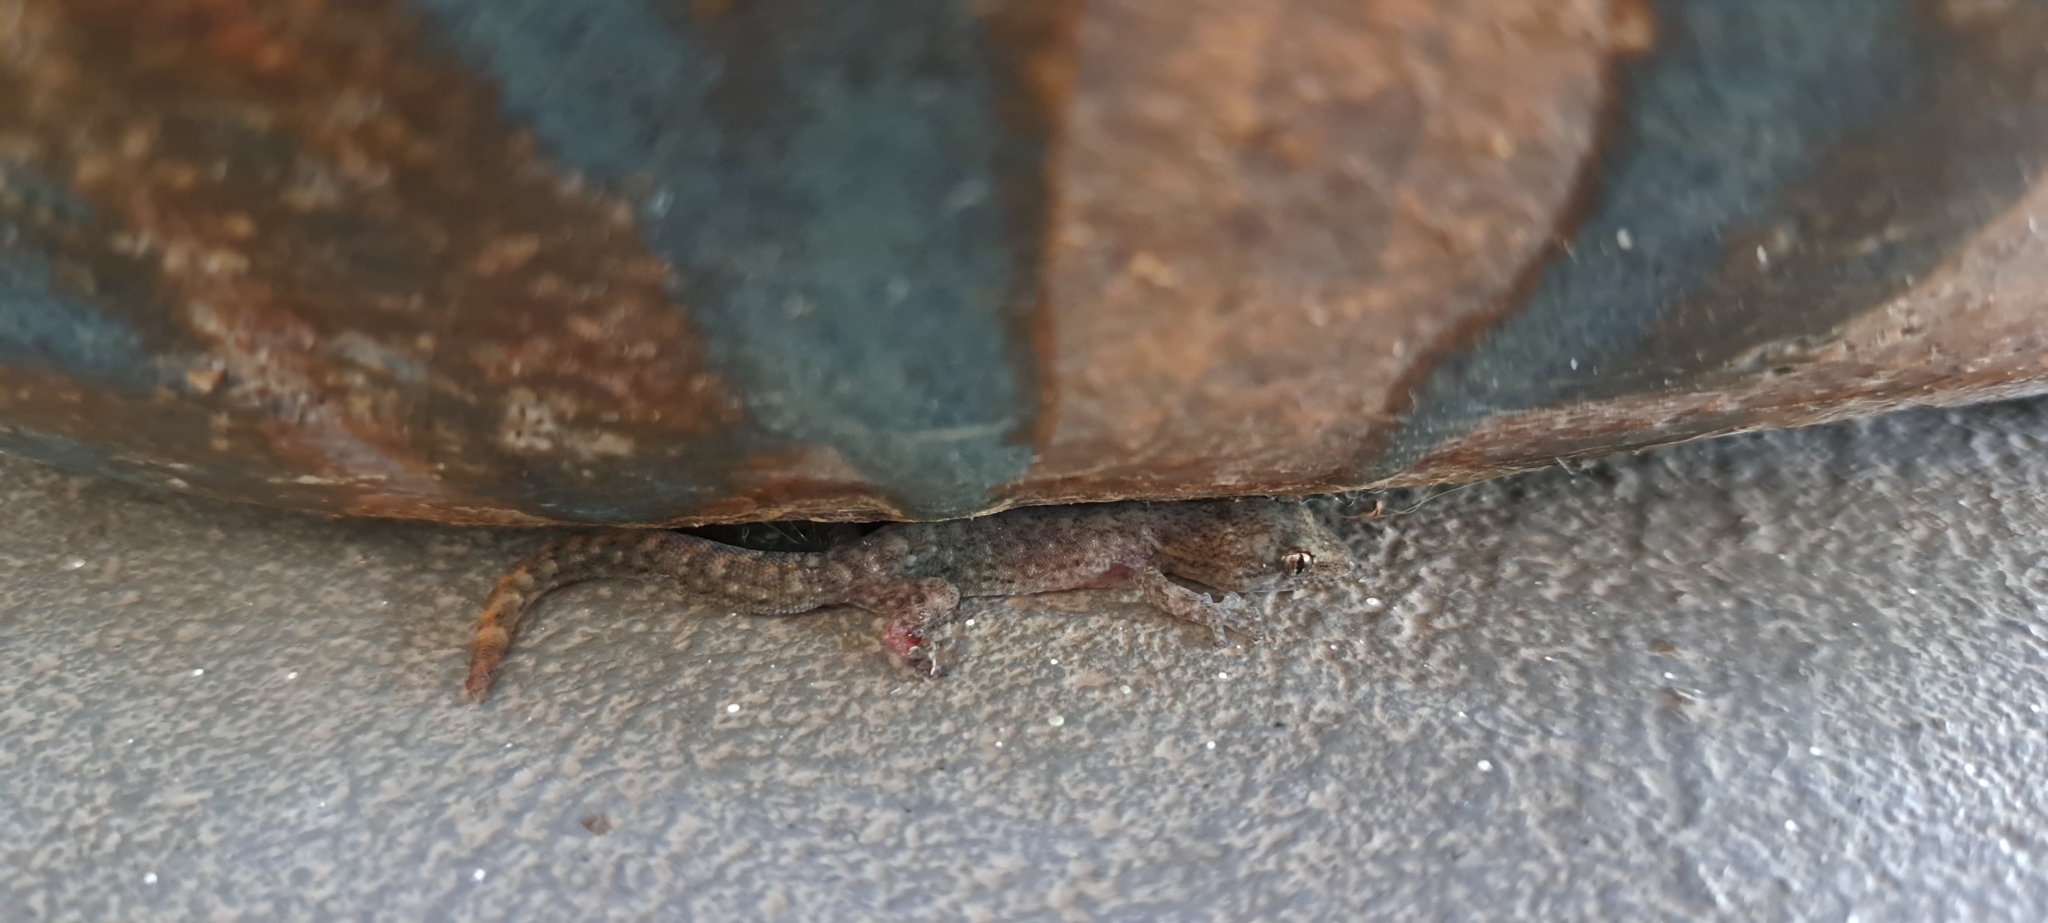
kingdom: Animalia
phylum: Chordata
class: Squamata
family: Gekkonidae
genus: Afrogecko
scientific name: Afrogecko porphyreus
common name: Marbled leaf-toed gecko
